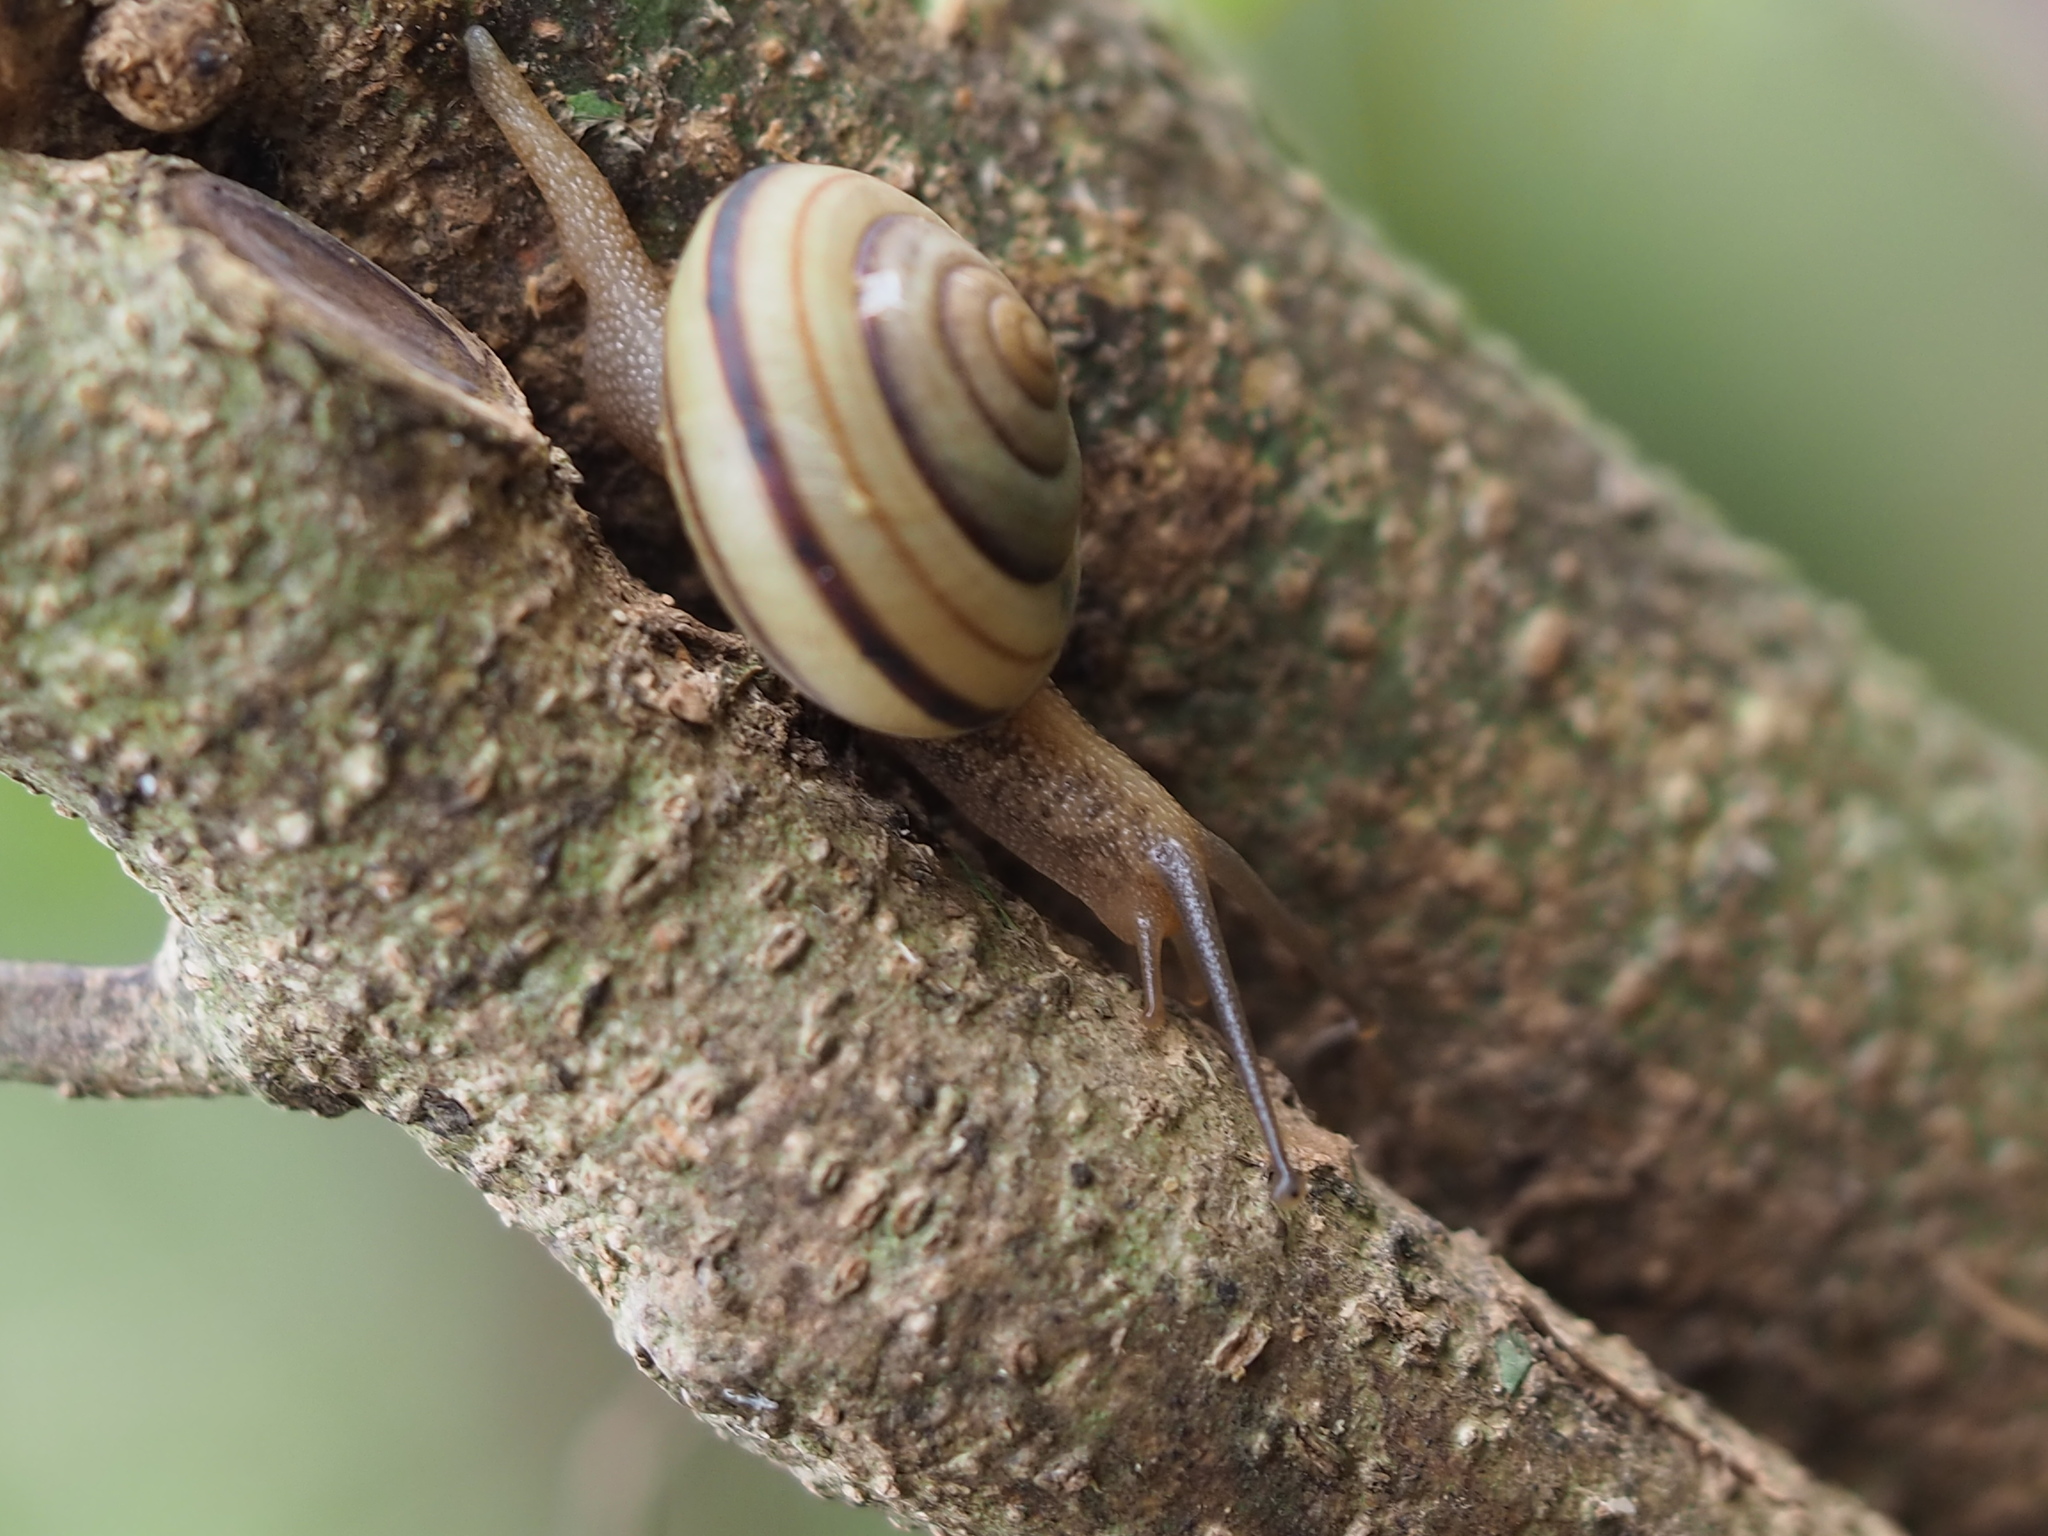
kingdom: Animalia
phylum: Mollusca
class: Gastropoda
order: Stylommatophora
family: Camaenidae
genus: Pancala
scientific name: Pancala batanica
